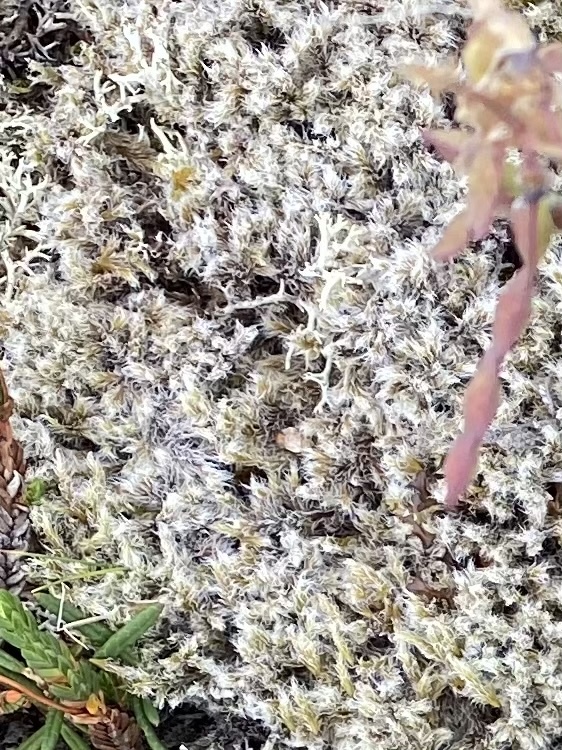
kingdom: Plantae
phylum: Bryophyta
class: Bryopsida
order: Grimmiales
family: Grimmiaceae
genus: Racomitrium
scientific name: Racomitrium lanuginosum
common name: Hoary rock moss
